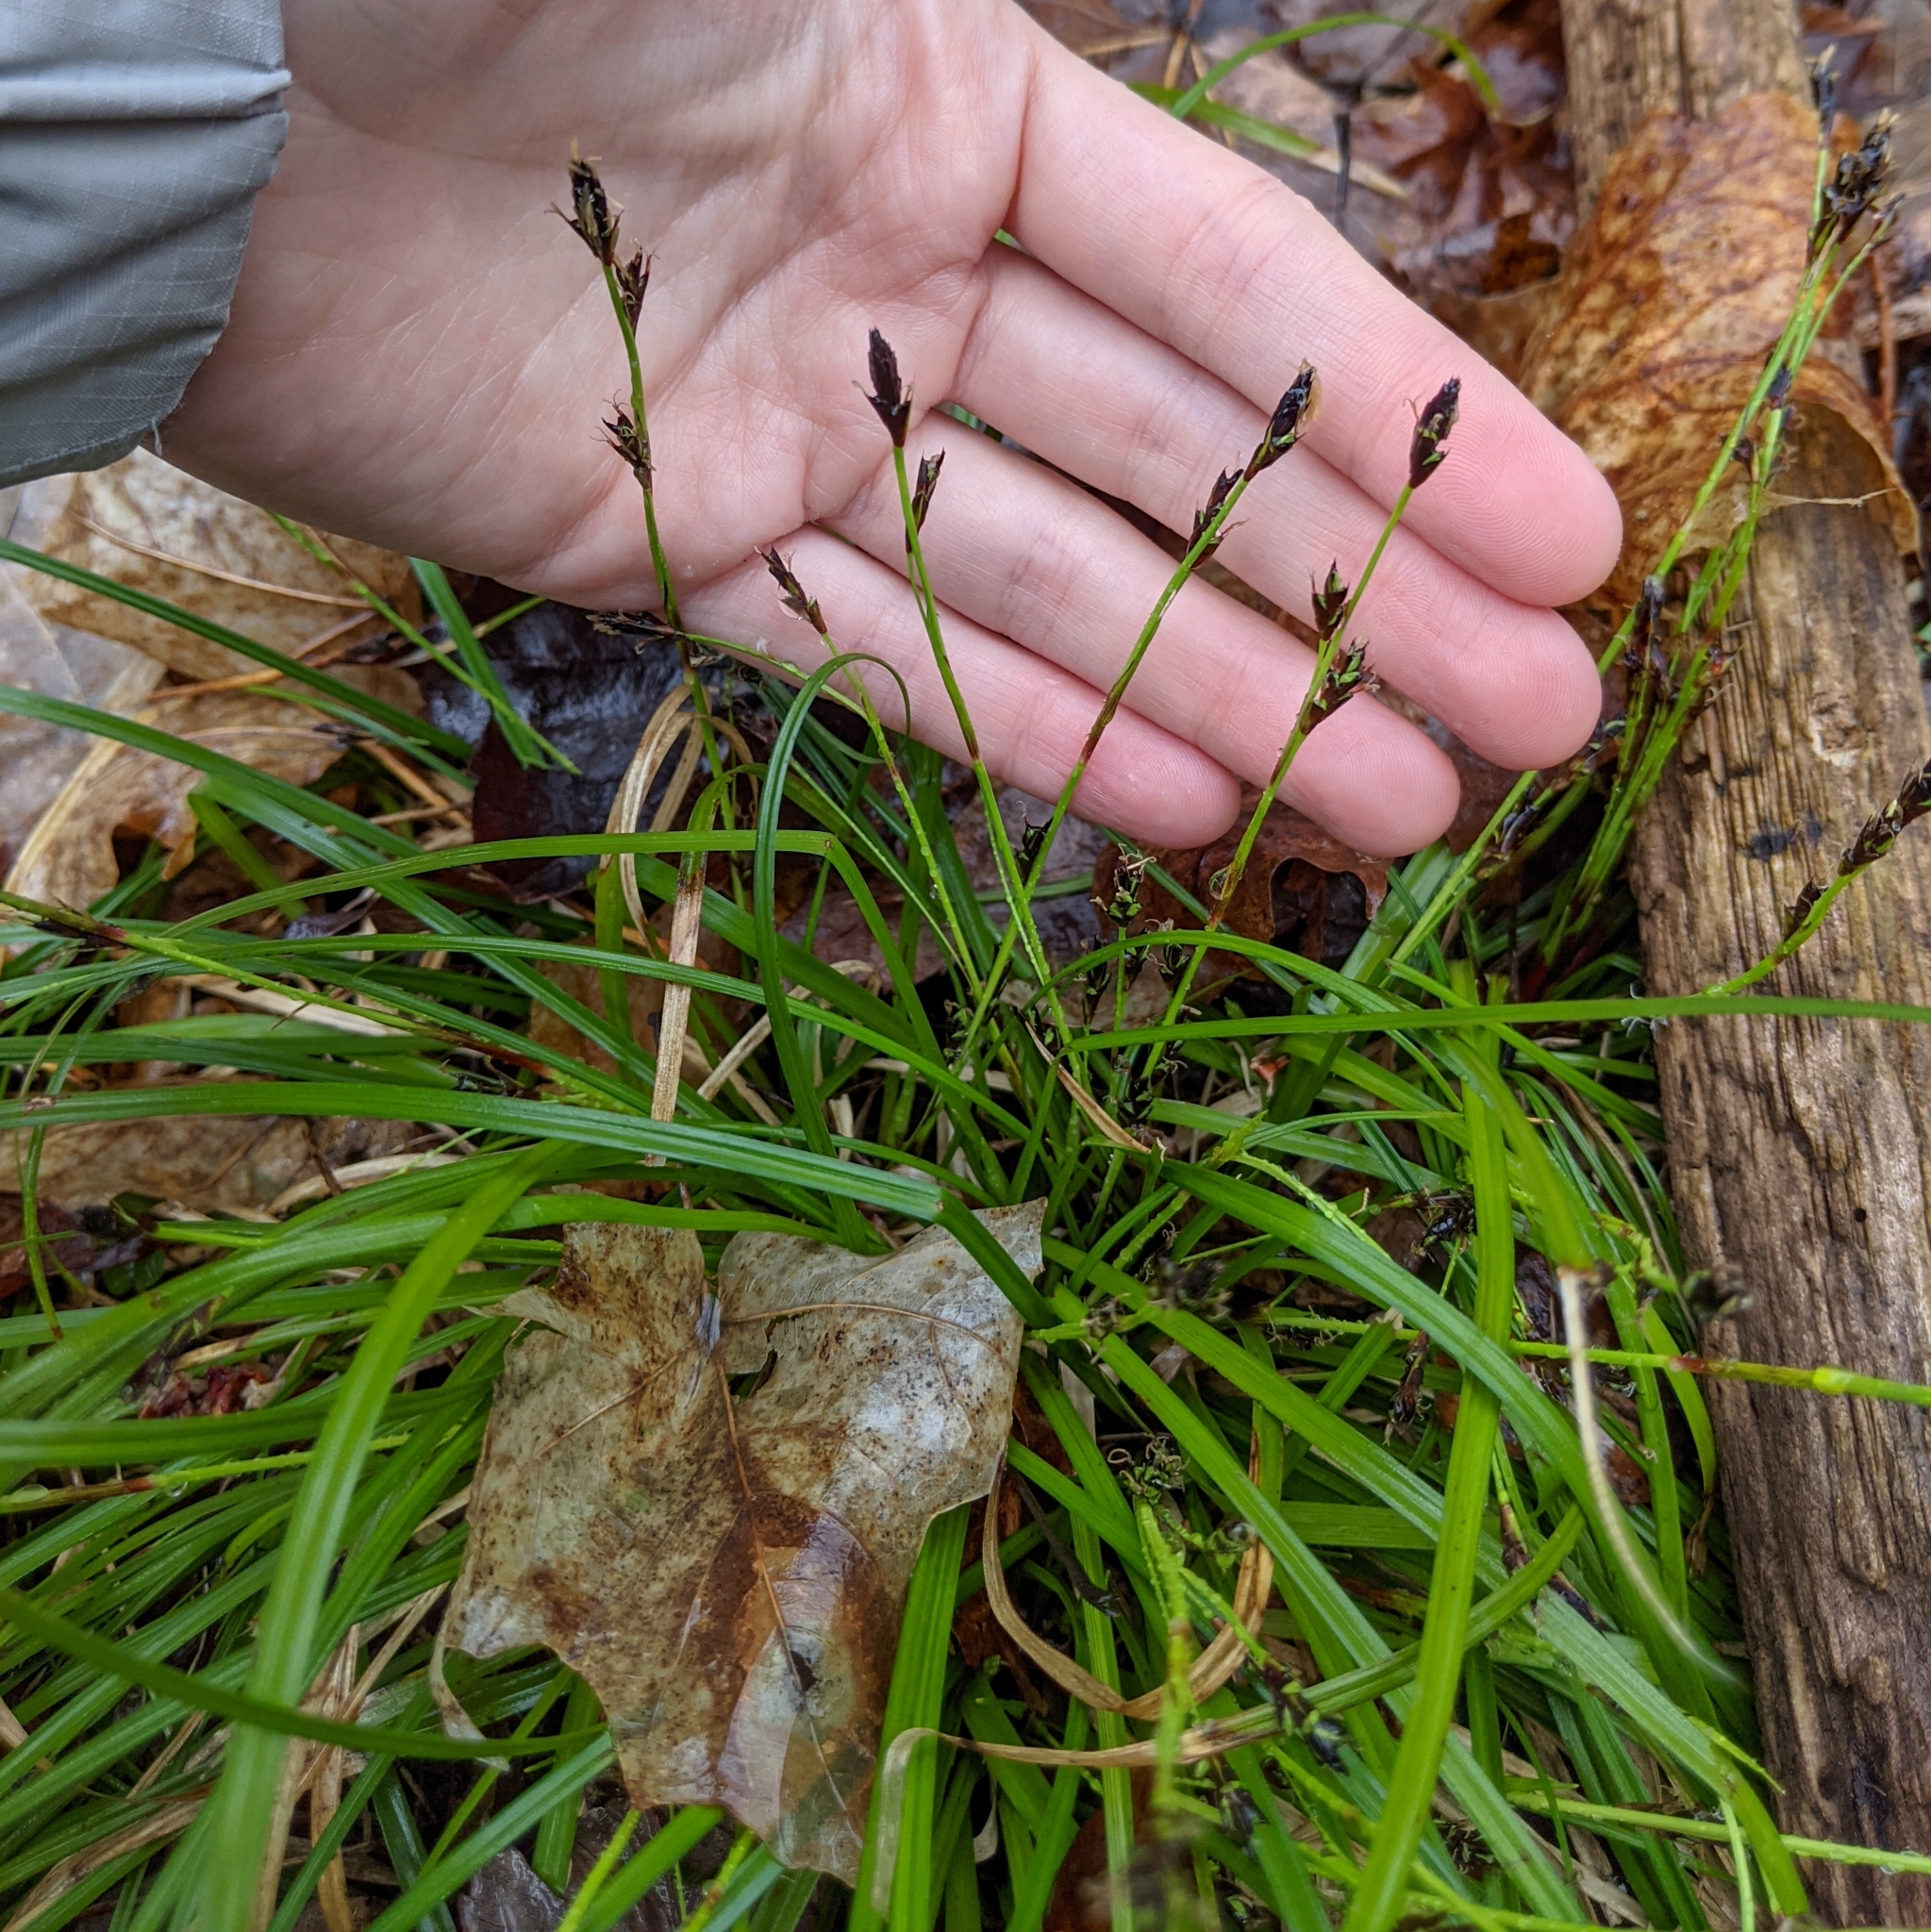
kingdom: Plantae
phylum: Tracheophyta
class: Liliopsida
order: Poales
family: Cyperaceae
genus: Carex
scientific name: Carex pedunculata
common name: Pedunculate sedge
